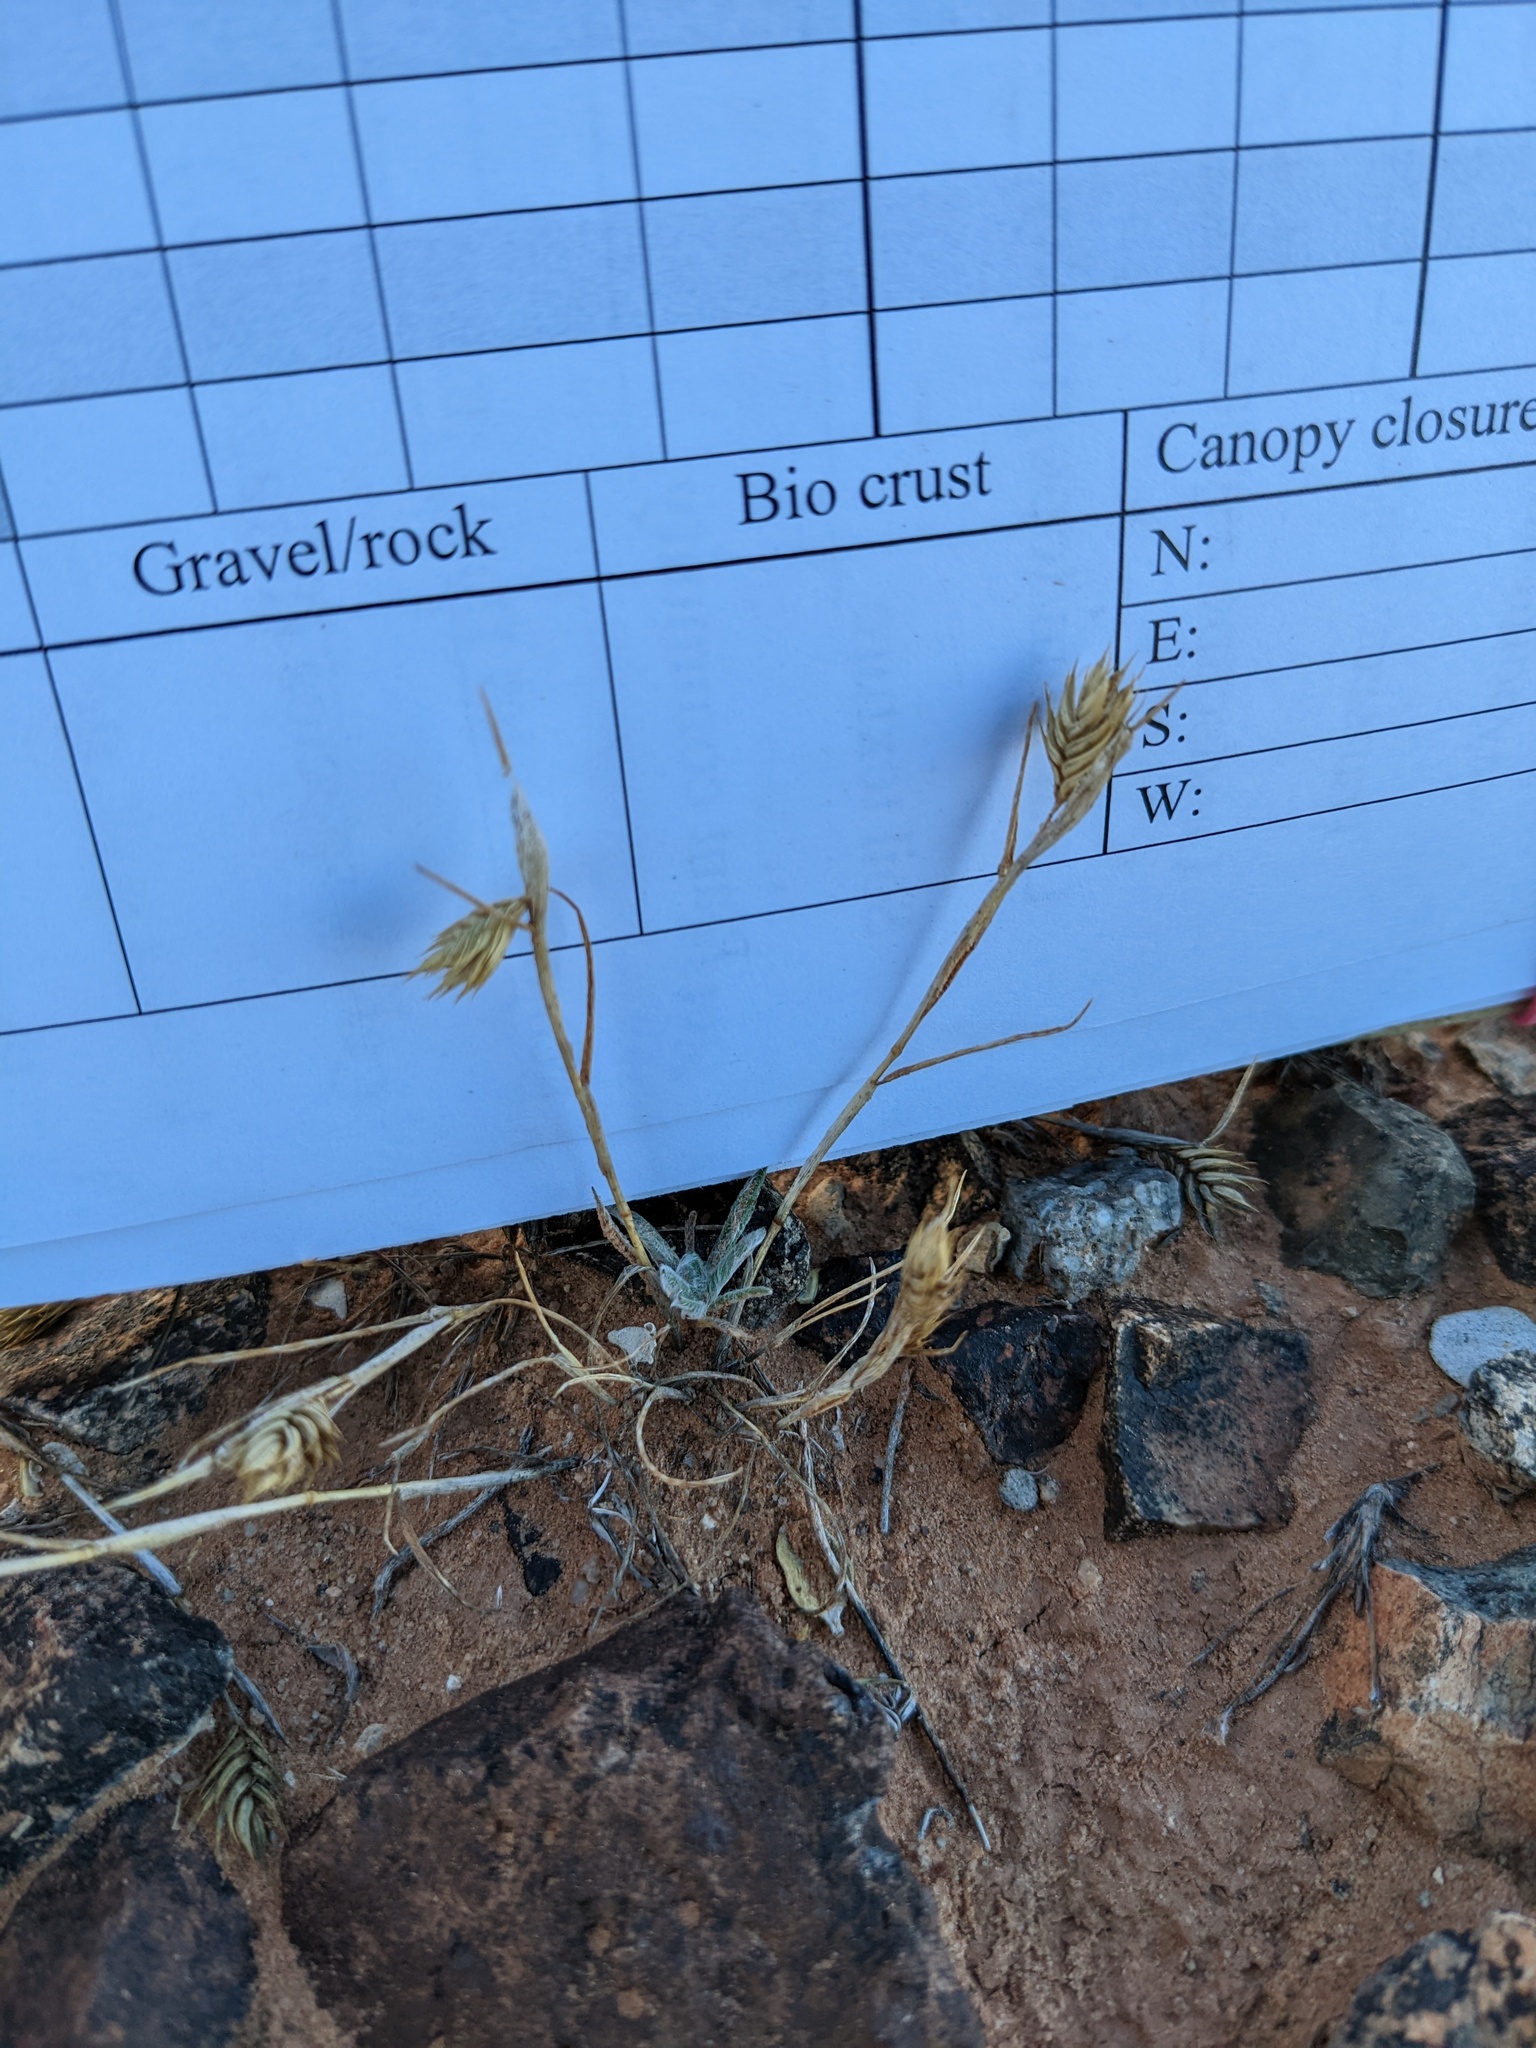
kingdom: Plantae
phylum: Tracheophyta
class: Liliopsida
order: Poales
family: Poaceae
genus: Eremopyrum
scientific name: Eremopyrum triticeum
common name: Annual wheatgrass
